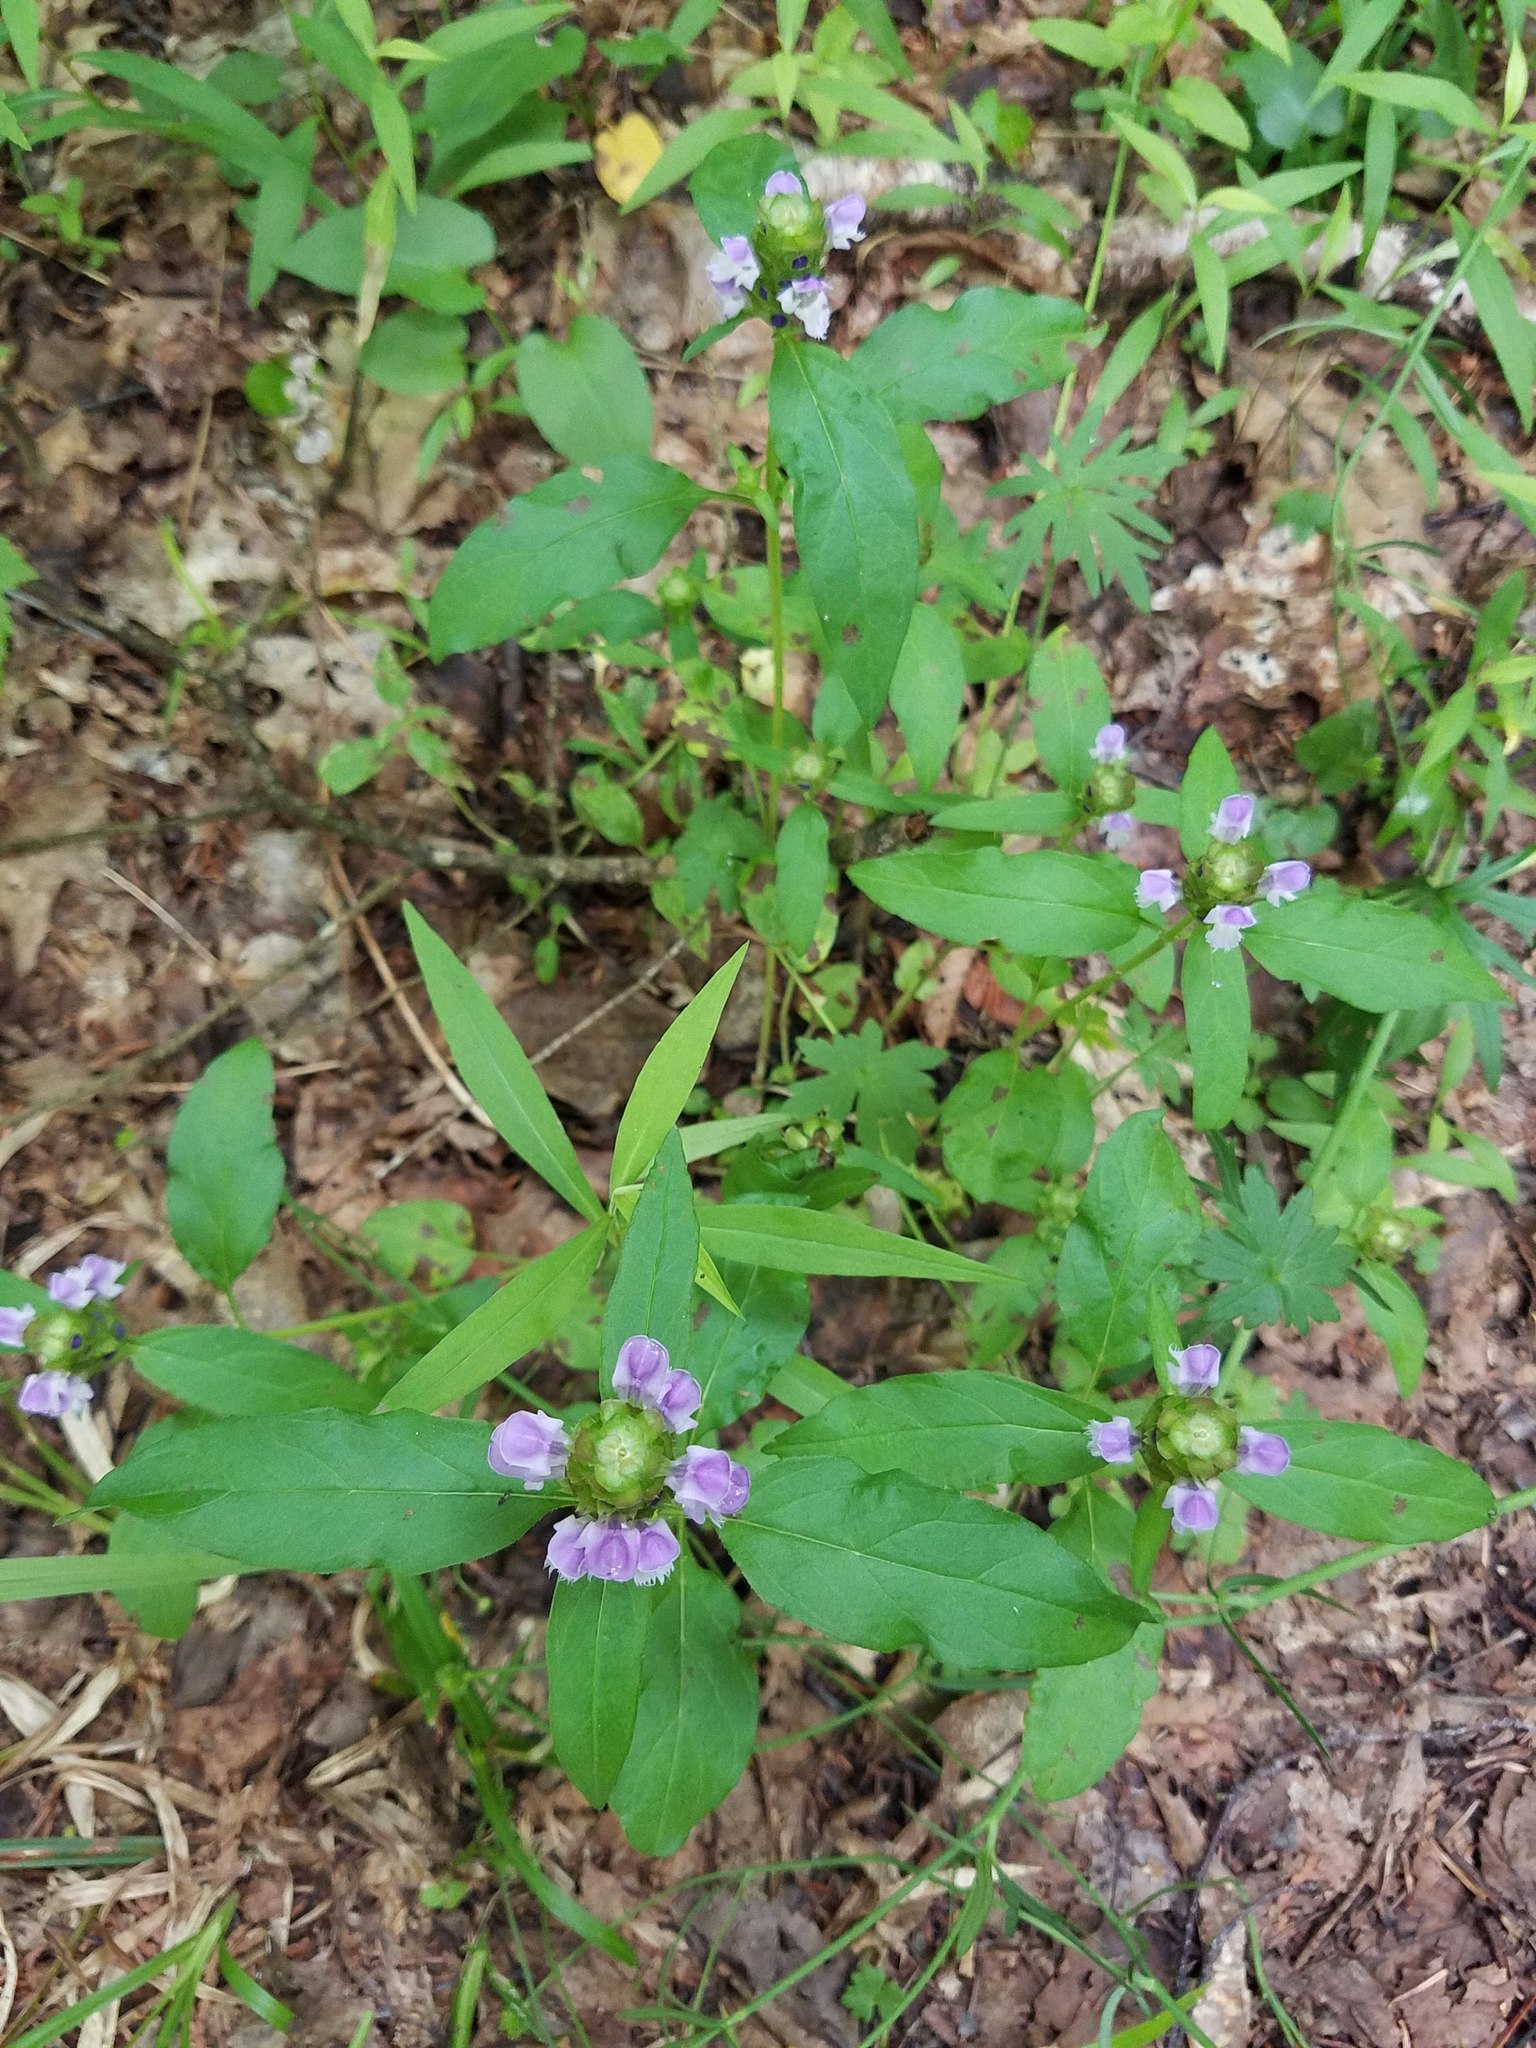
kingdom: Plantae
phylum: Tracheophyta
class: Magnoliopsida
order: Lamiales
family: Lamiaceae
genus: Prunella
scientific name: Prunella vulgaris
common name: Heal-all
